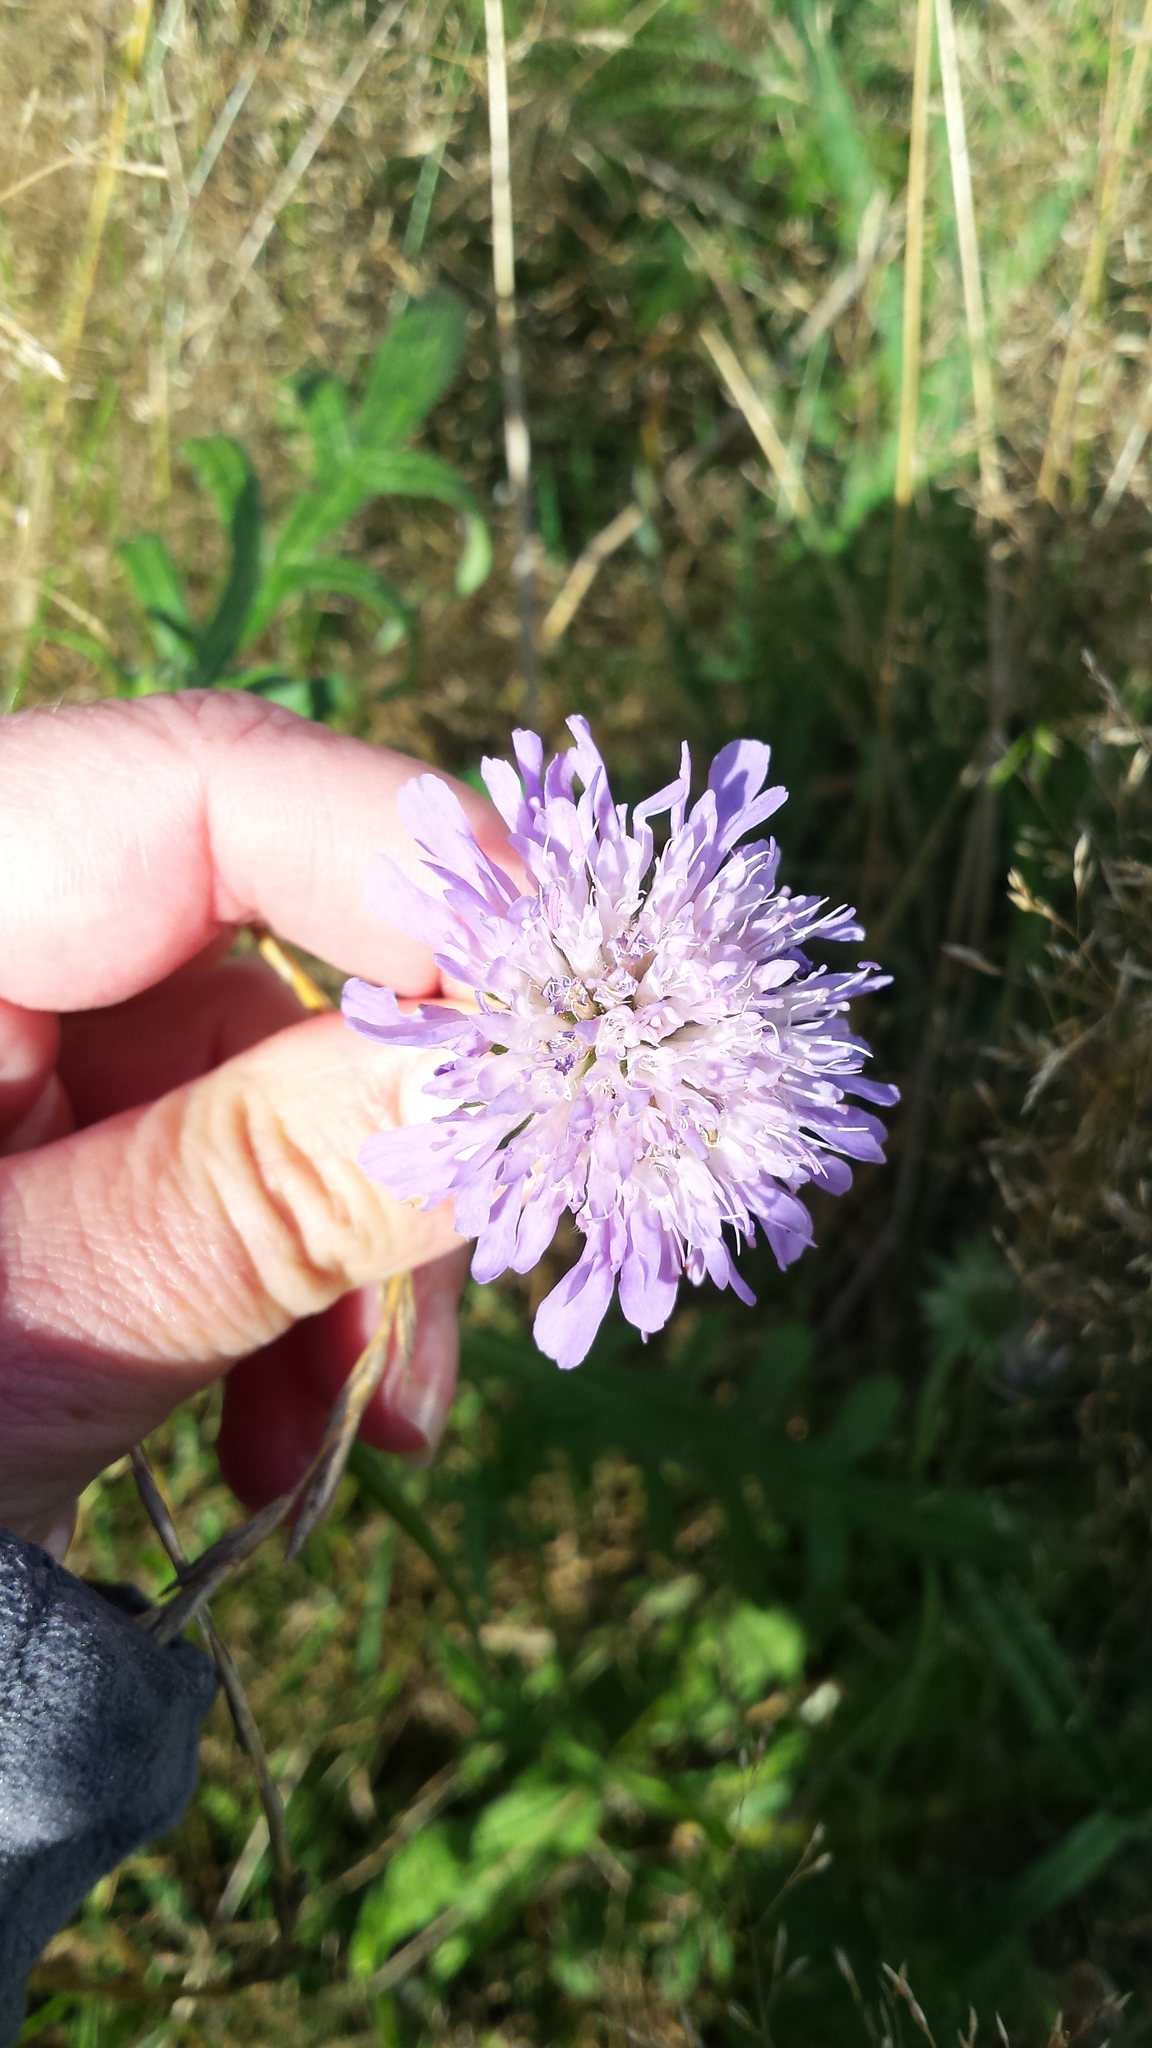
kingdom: Plantae
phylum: Tracheophyta
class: Magnoliopsida
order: Dipsacales
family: Caprifoliaceae
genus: Knautia
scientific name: Knautia arvensis
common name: Field scabiosa
